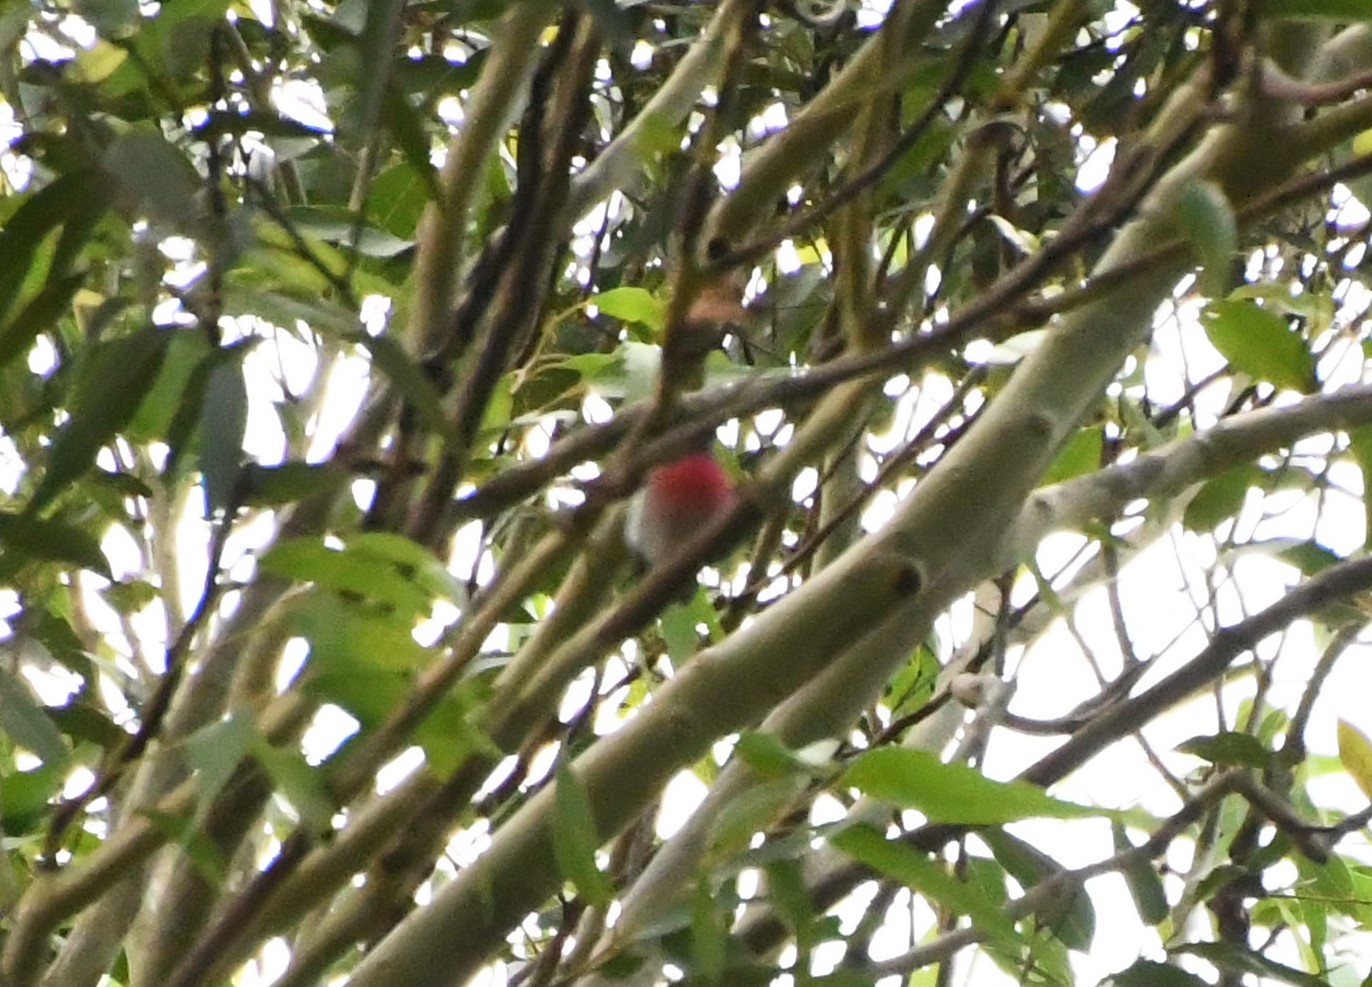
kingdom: Animalia
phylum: Chordata
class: Aves
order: Passeriformes
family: Petroicidae
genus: Petroica
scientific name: Petroica rosea
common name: Rose robin
